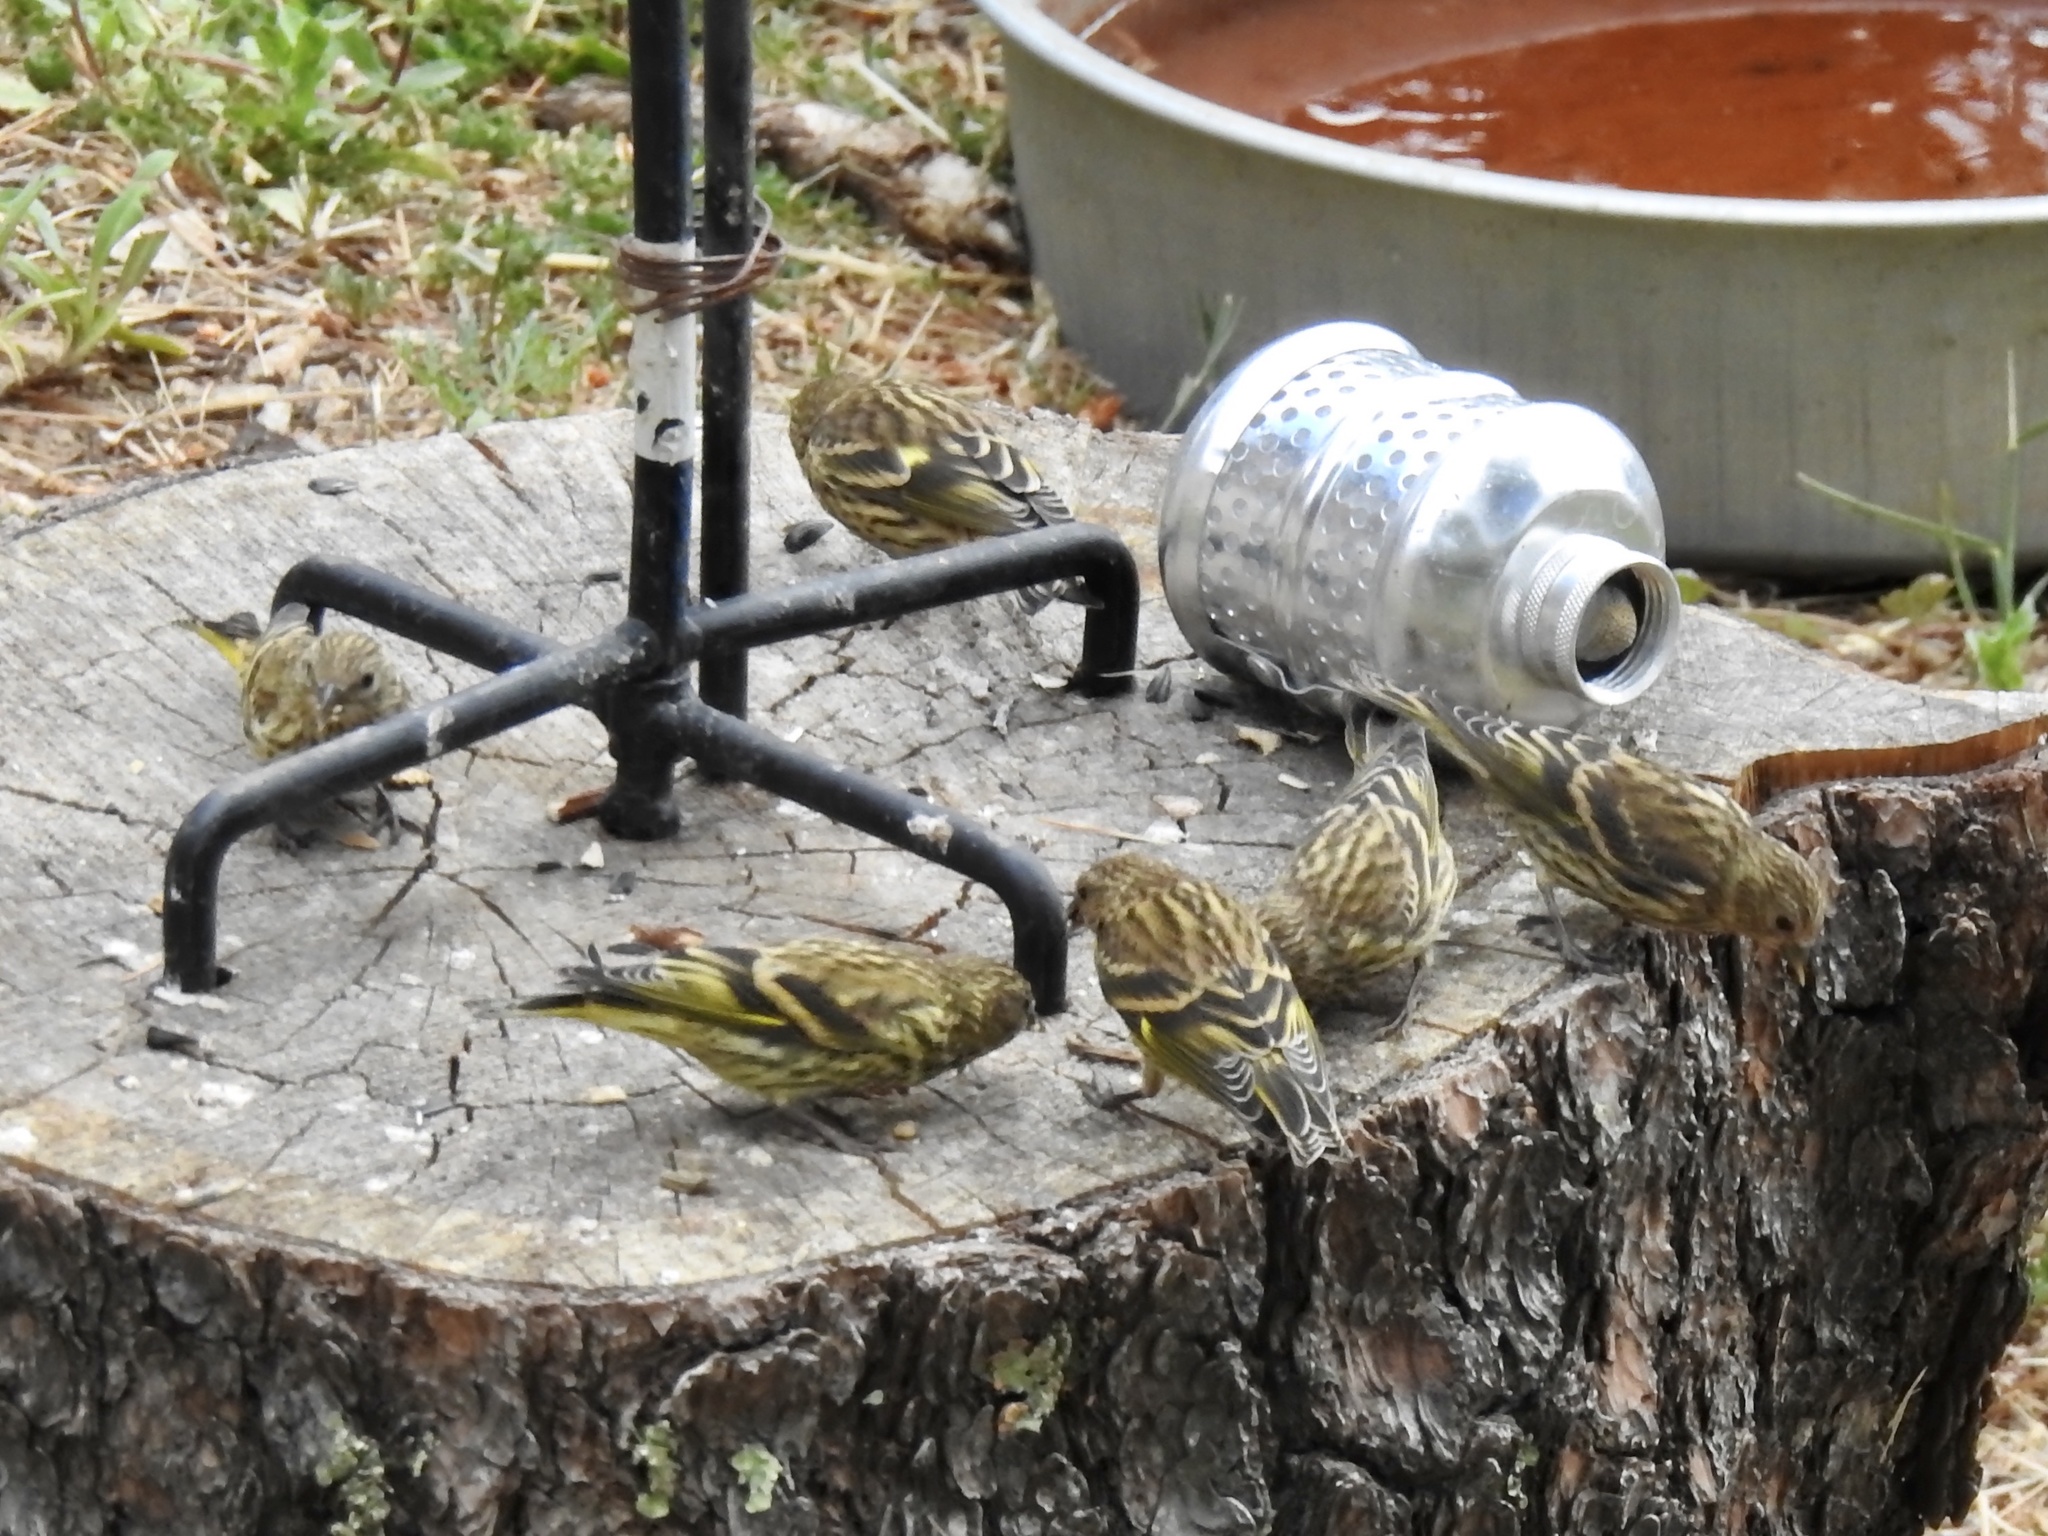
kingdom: Animalia
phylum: Chordata
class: Aves
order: Passeriformes
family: Fringillidae
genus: Spinus
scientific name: Spinus pinus
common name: Pine siskin
